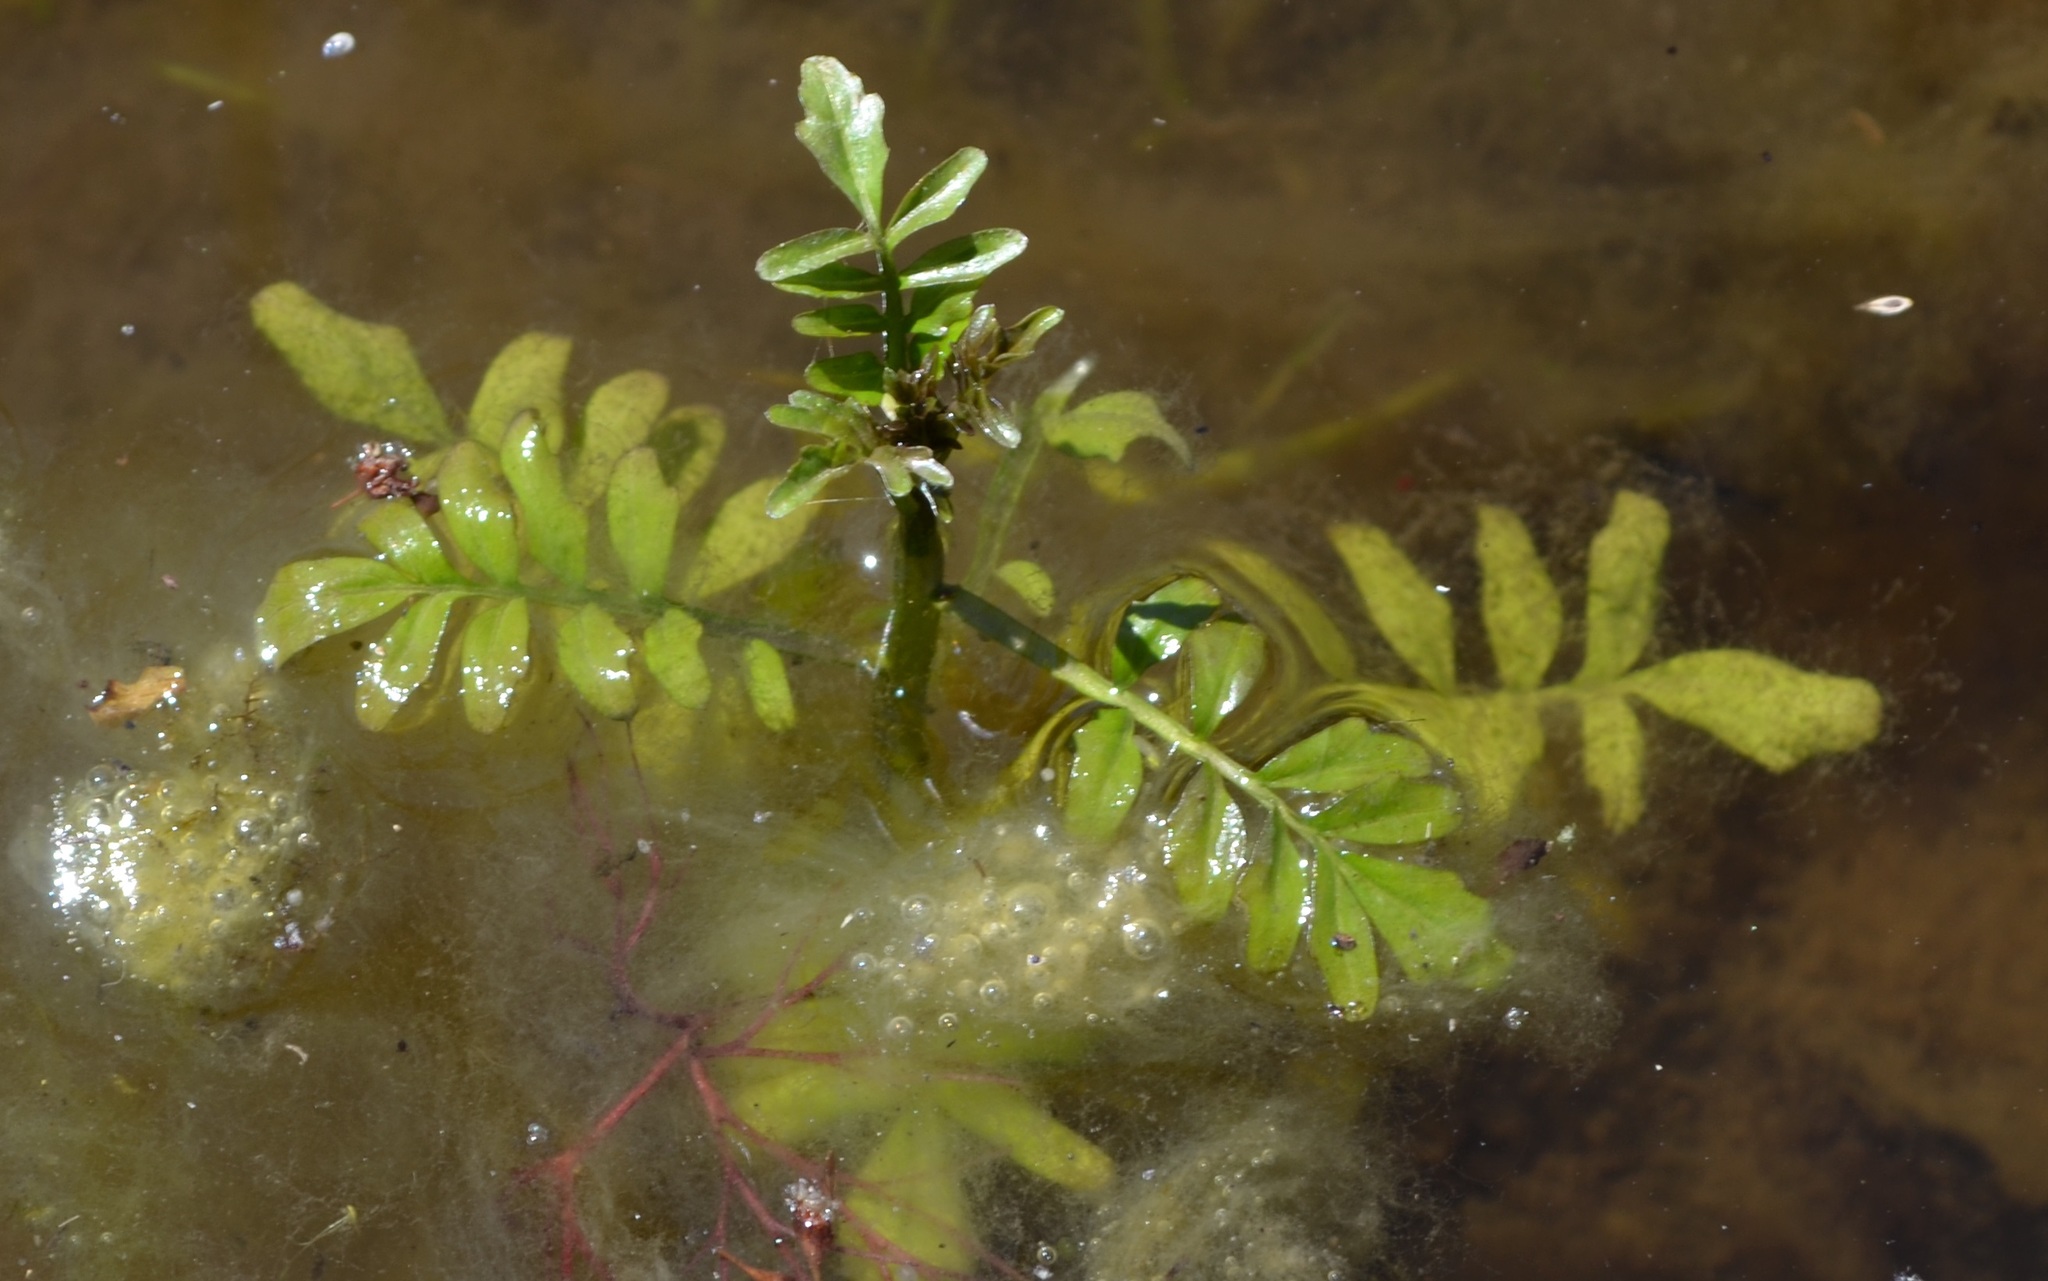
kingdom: Plantae
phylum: Tracheophyta
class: Magnoliopsida
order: Brassicales
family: Brassicaceae
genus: Cardamine
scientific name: Cardamine pensylvanica
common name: Pennsylvania bittercress
